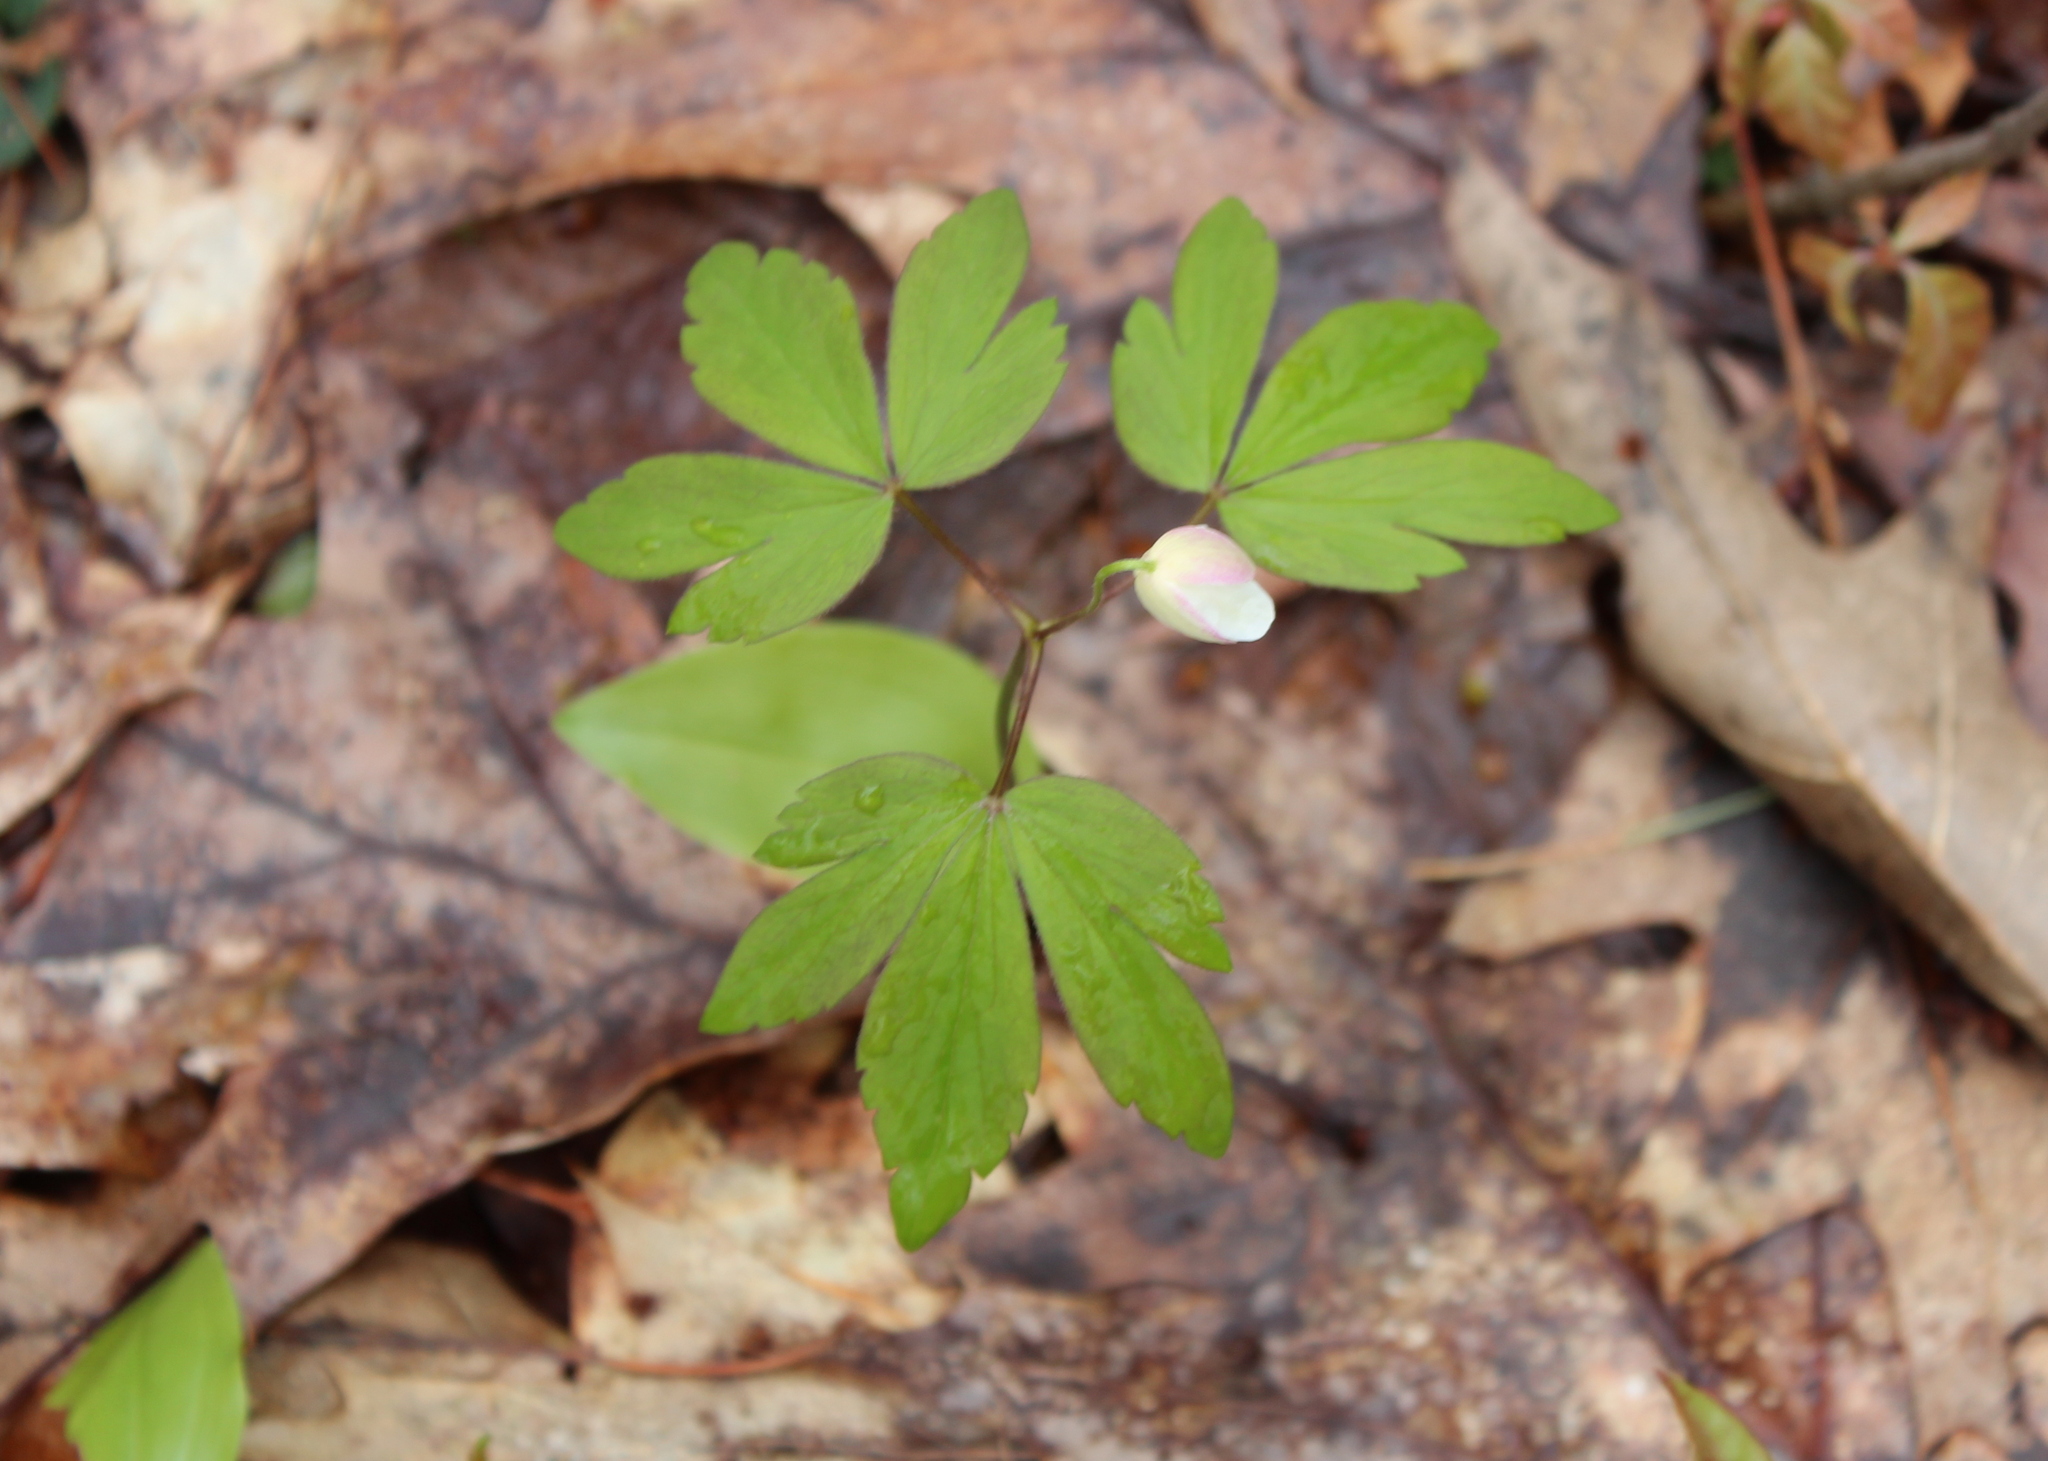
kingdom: Plantae
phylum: Tracheophyta
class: Magnoliopsida
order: Ranunculales
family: Ranunculaceae
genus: Anemone
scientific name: Anemone quinquefolia
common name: Wood anemone
